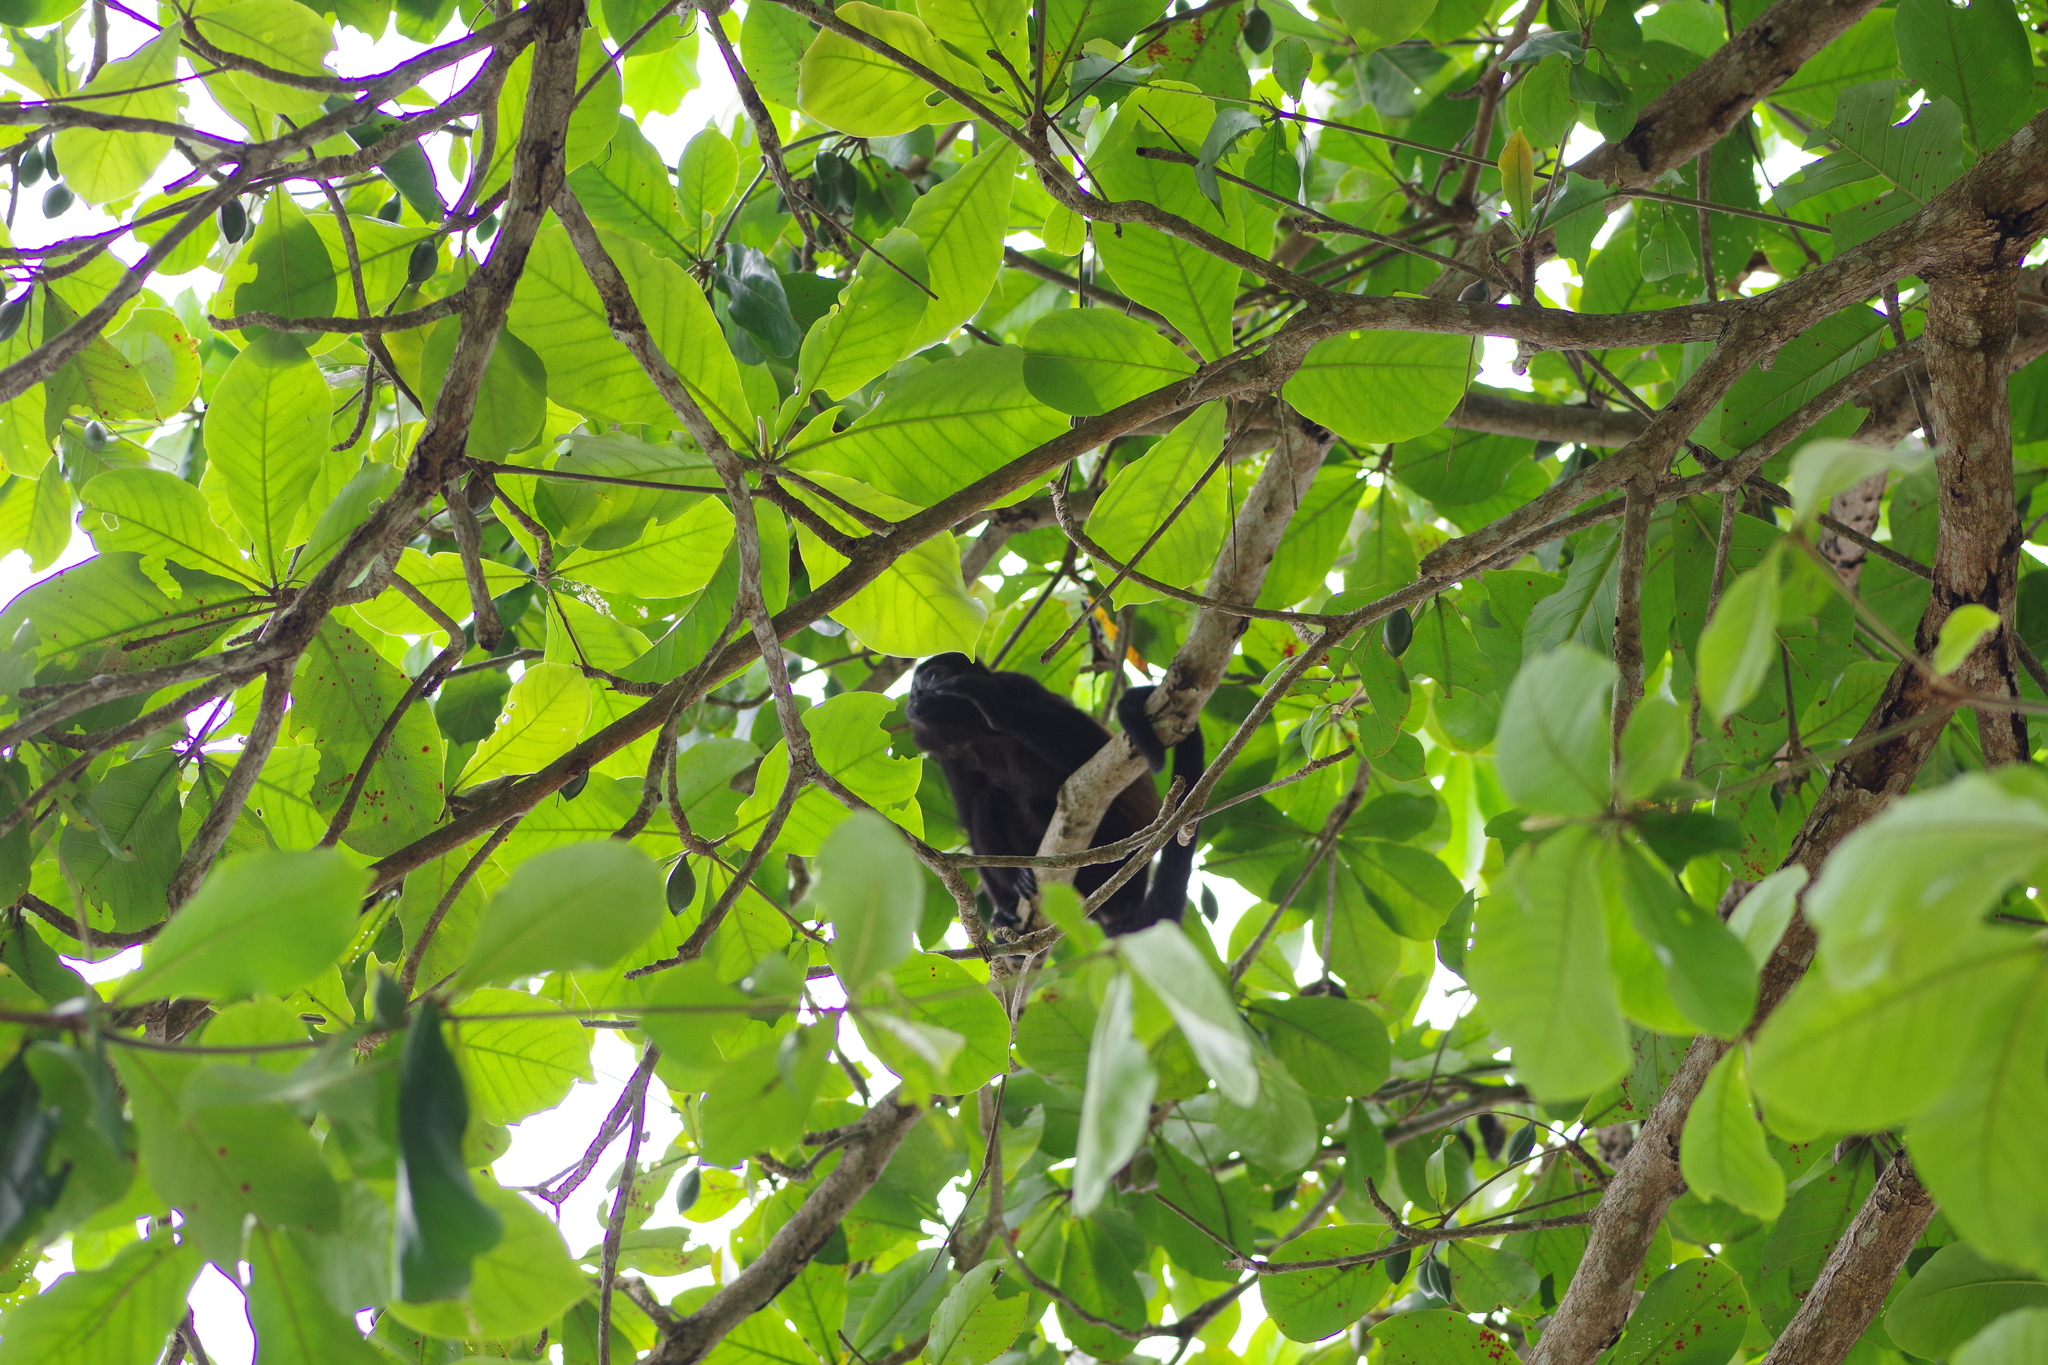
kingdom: Animalia
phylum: Chordata
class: Mammalia
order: Primates
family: Atelidae
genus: Alouatta
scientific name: Alouatta palliata
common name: Mantled howler
